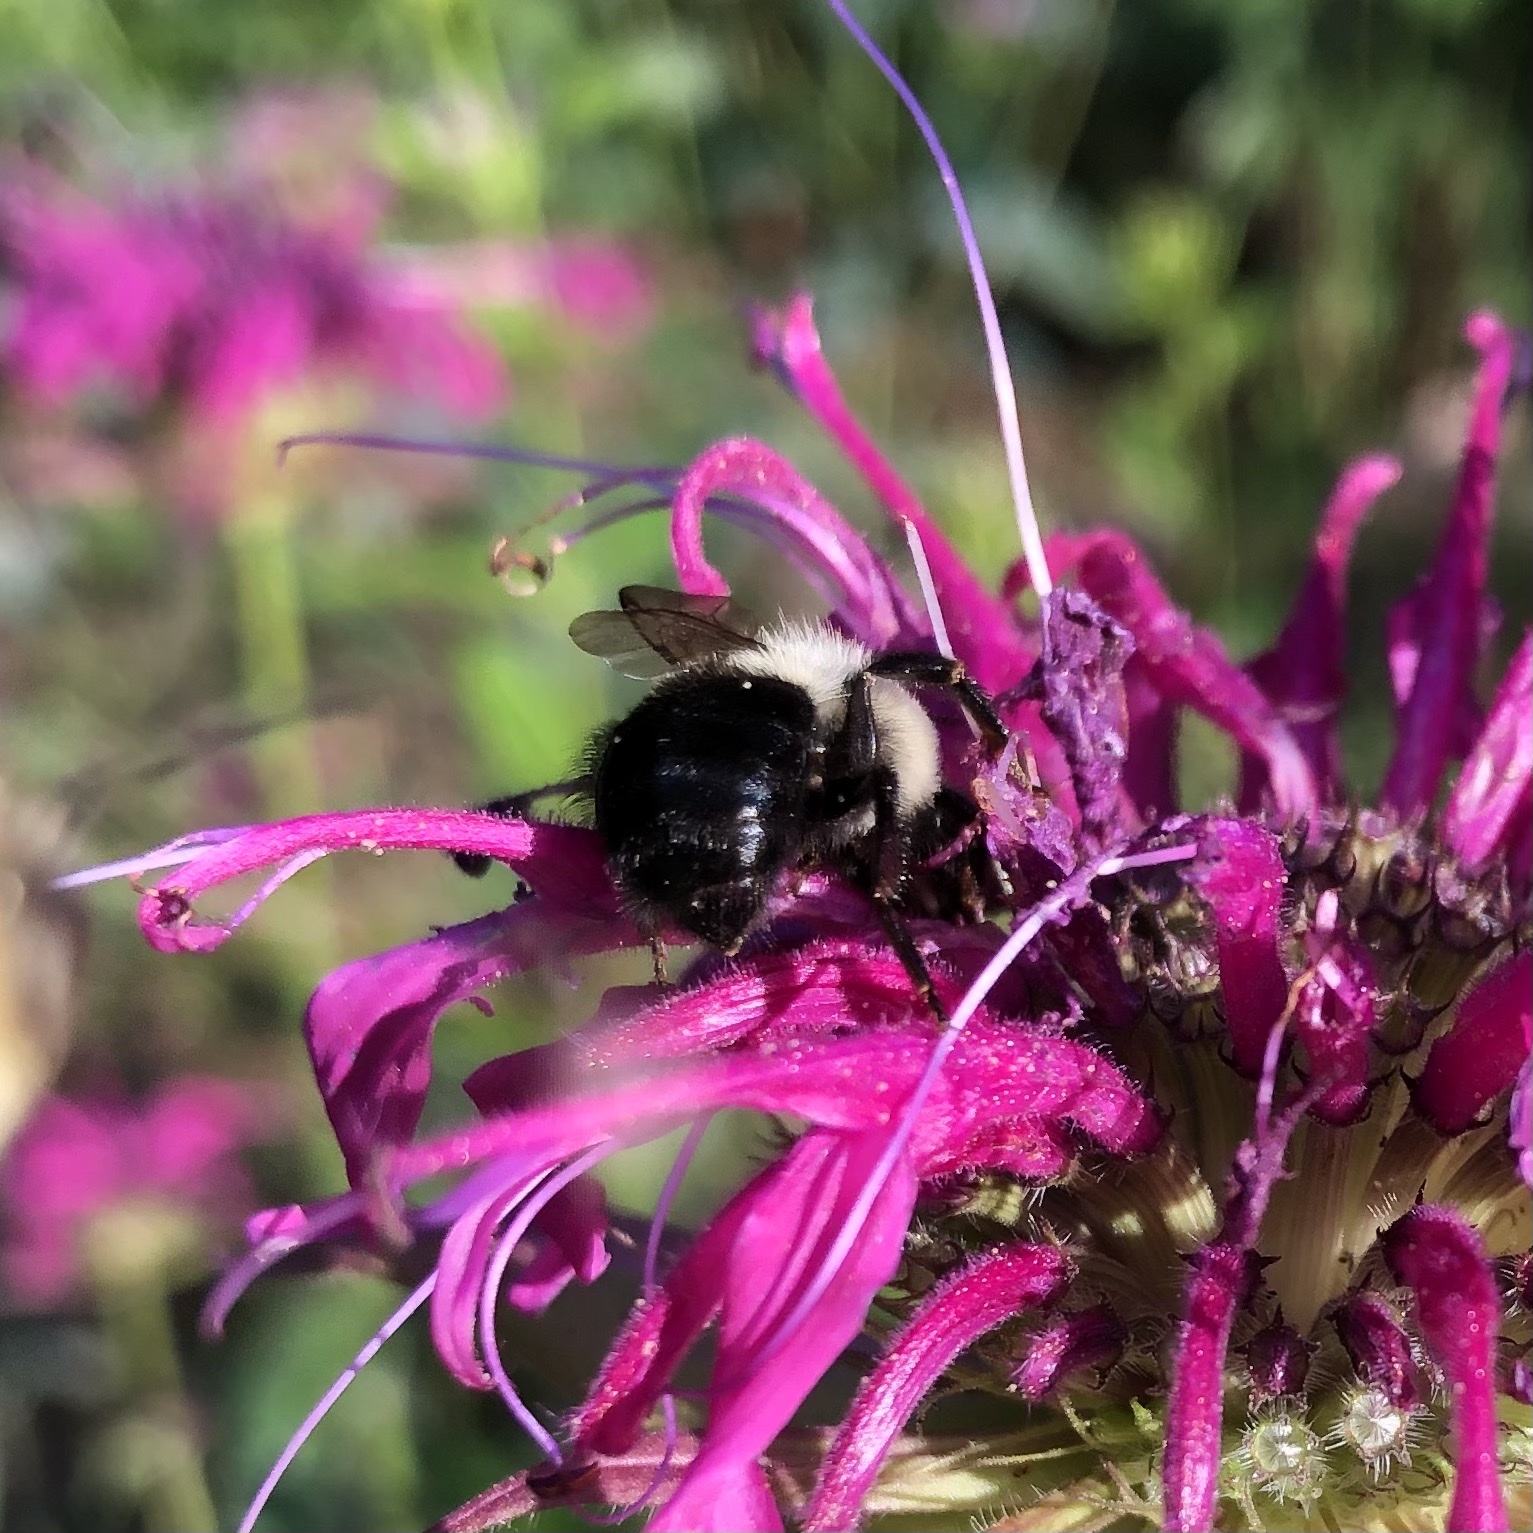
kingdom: Animalia
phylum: Arthropoda
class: Insecta
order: Hymenoptera
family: Apidae
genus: Bombus
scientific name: Bombus impatiens
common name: Common eastern bumble bee
